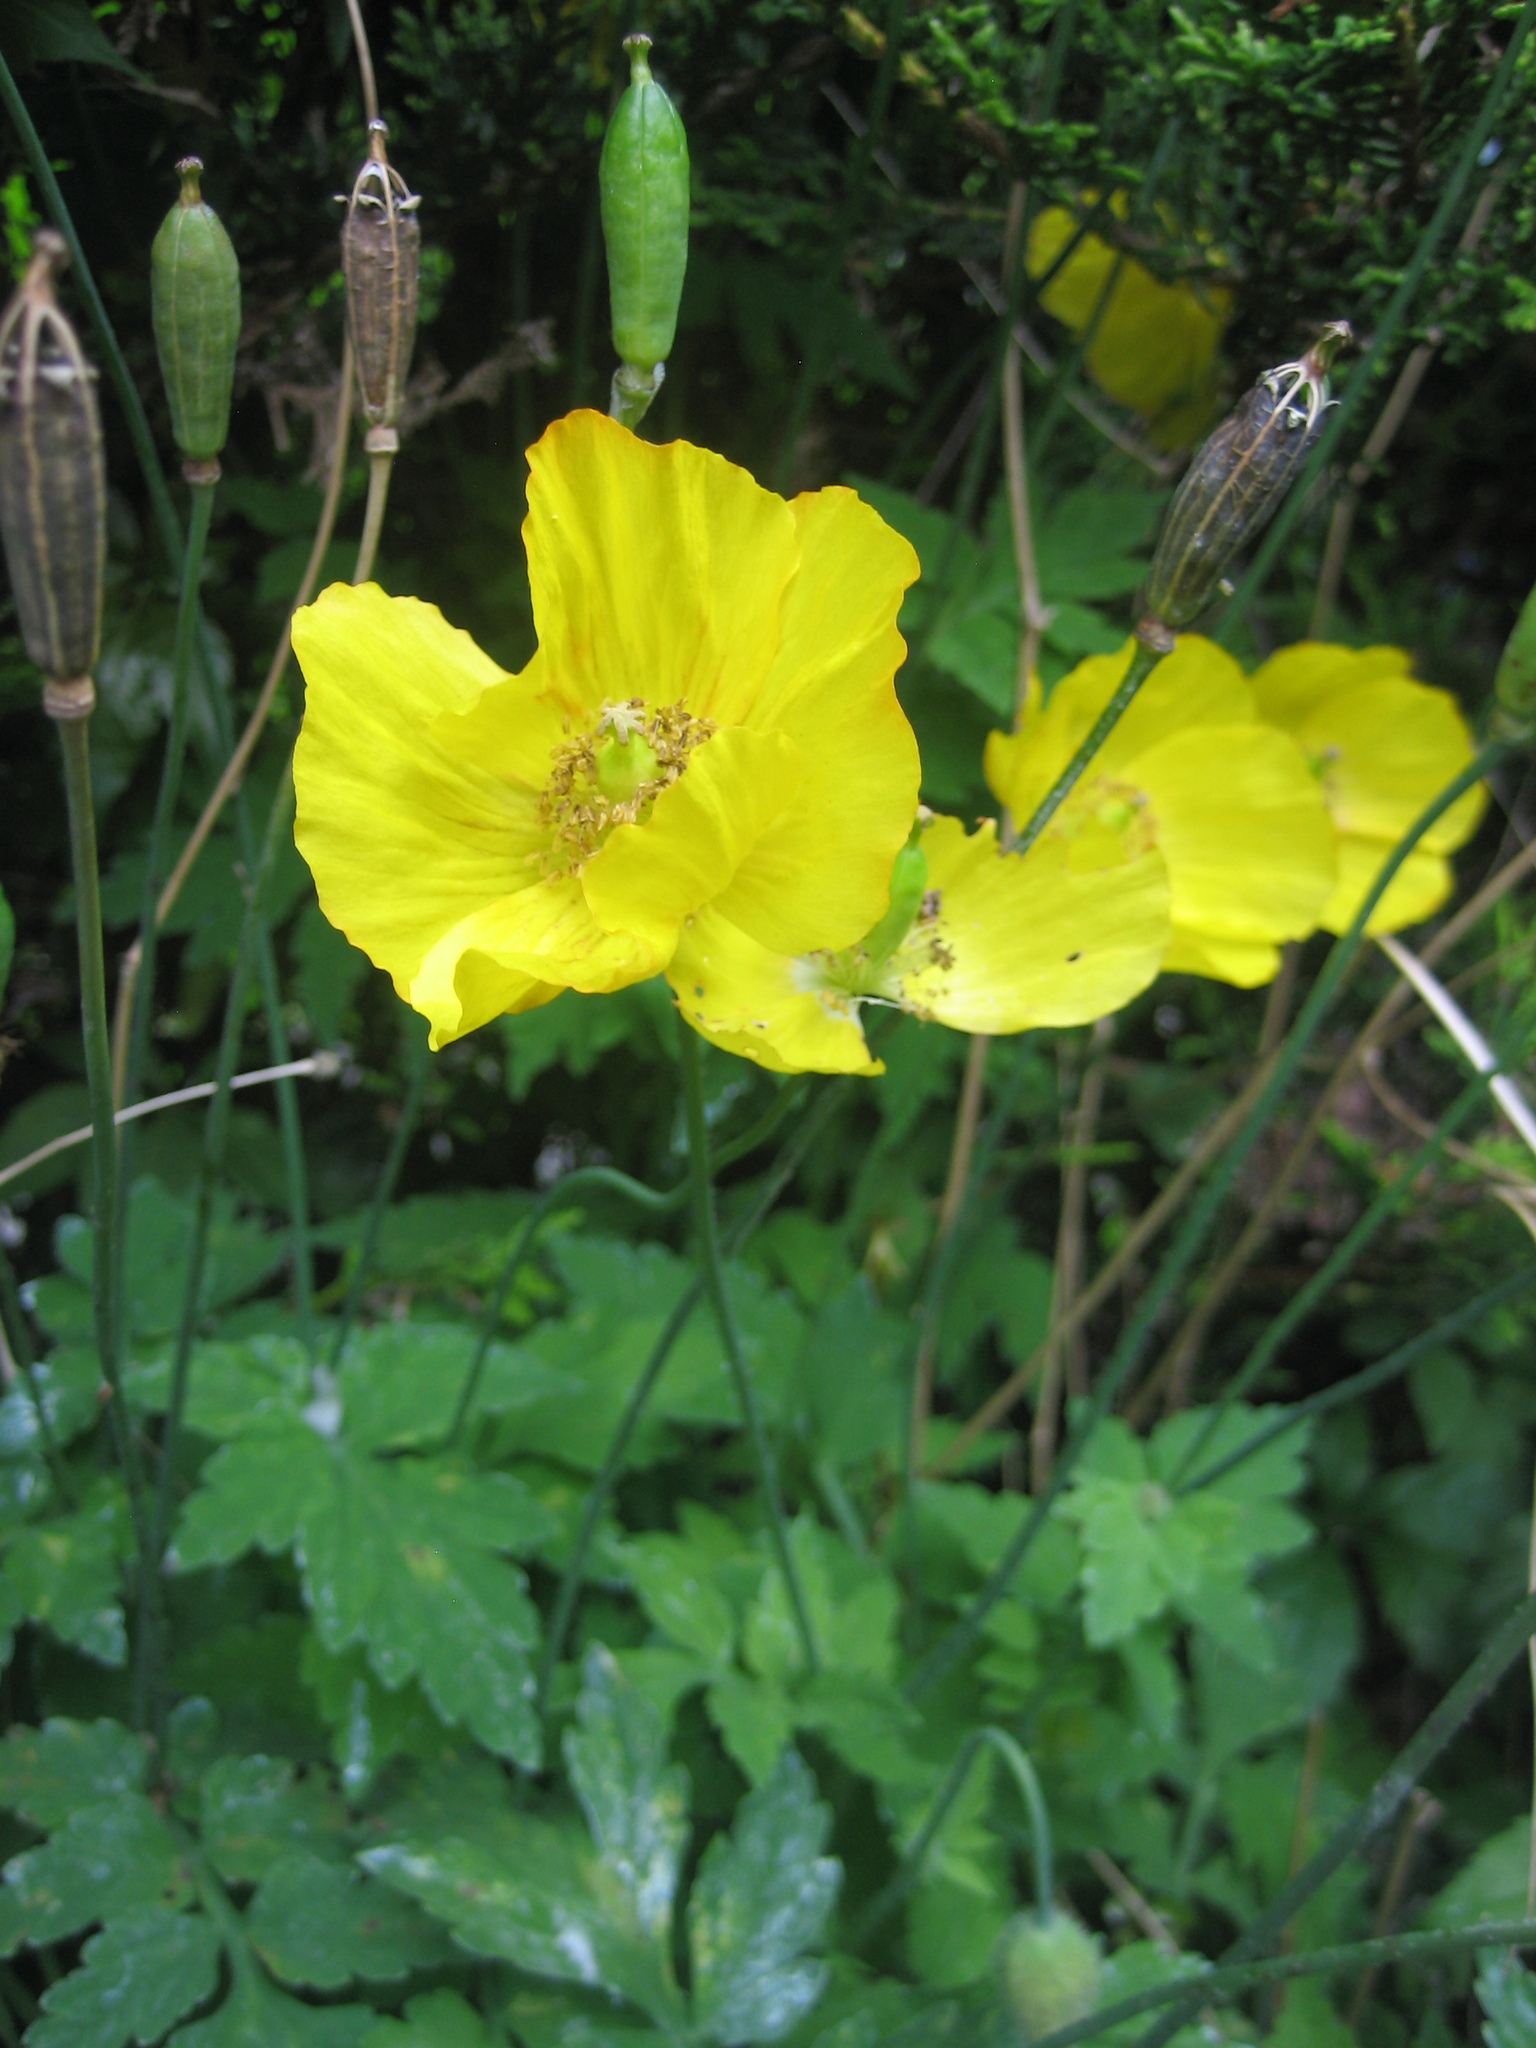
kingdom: Plantae
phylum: Tracheophyta
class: Magnoliopsida
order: Ranunculales
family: Papaveraceae
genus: Papaver
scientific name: Papaver cambricum
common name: Poppy
